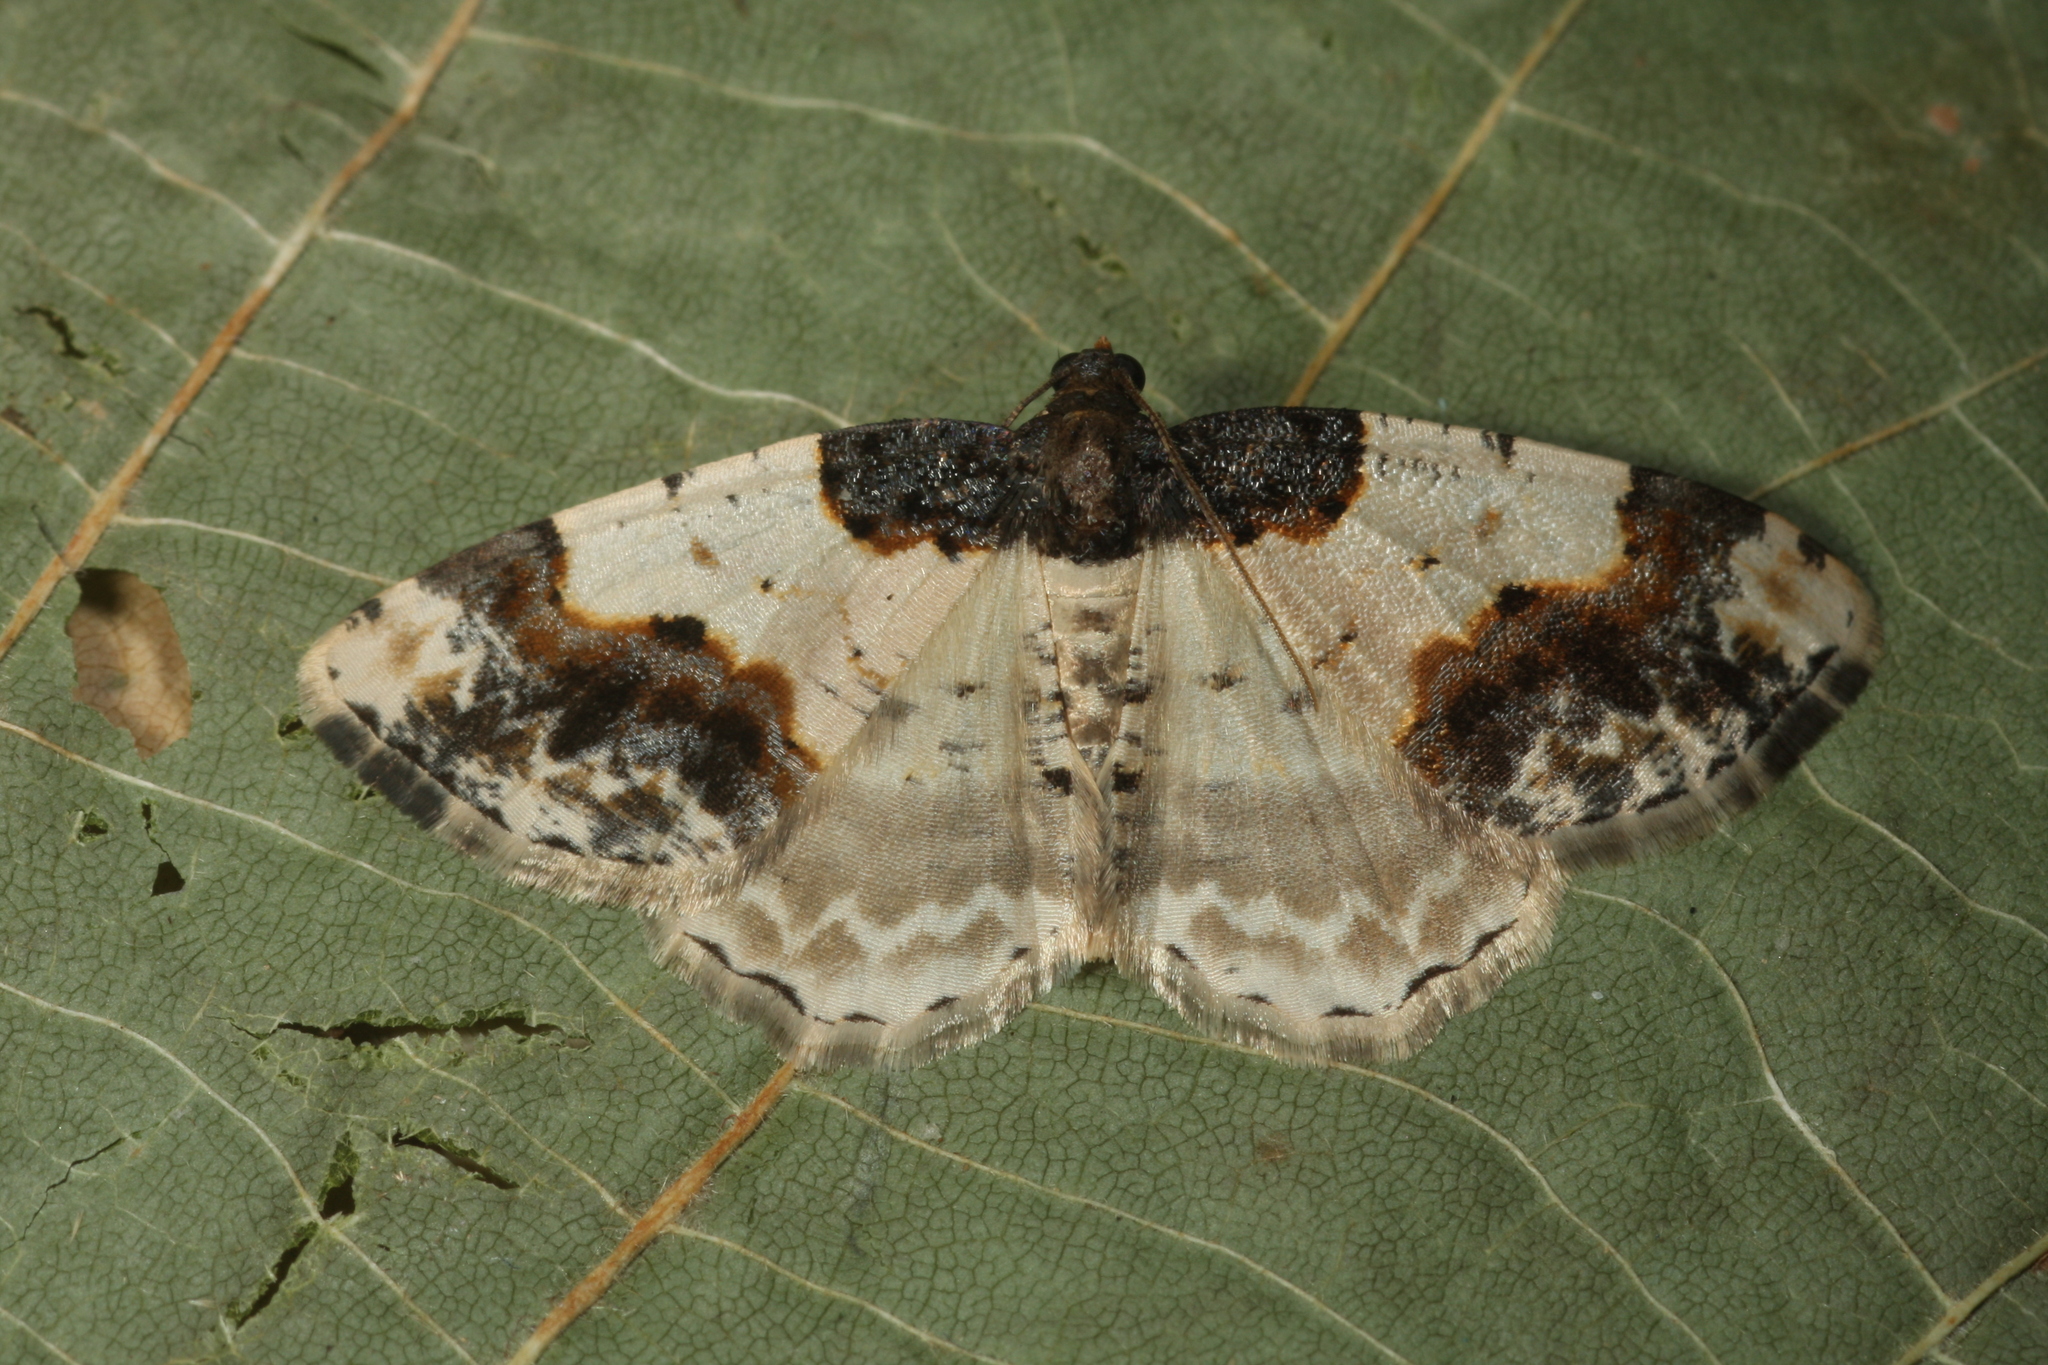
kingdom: Animalia
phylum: Arthropoda
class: Insecta
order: Lepidoptera
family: Geometridae
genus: Ligdia
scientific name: Ligdia adustata
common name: Scorched carpet
